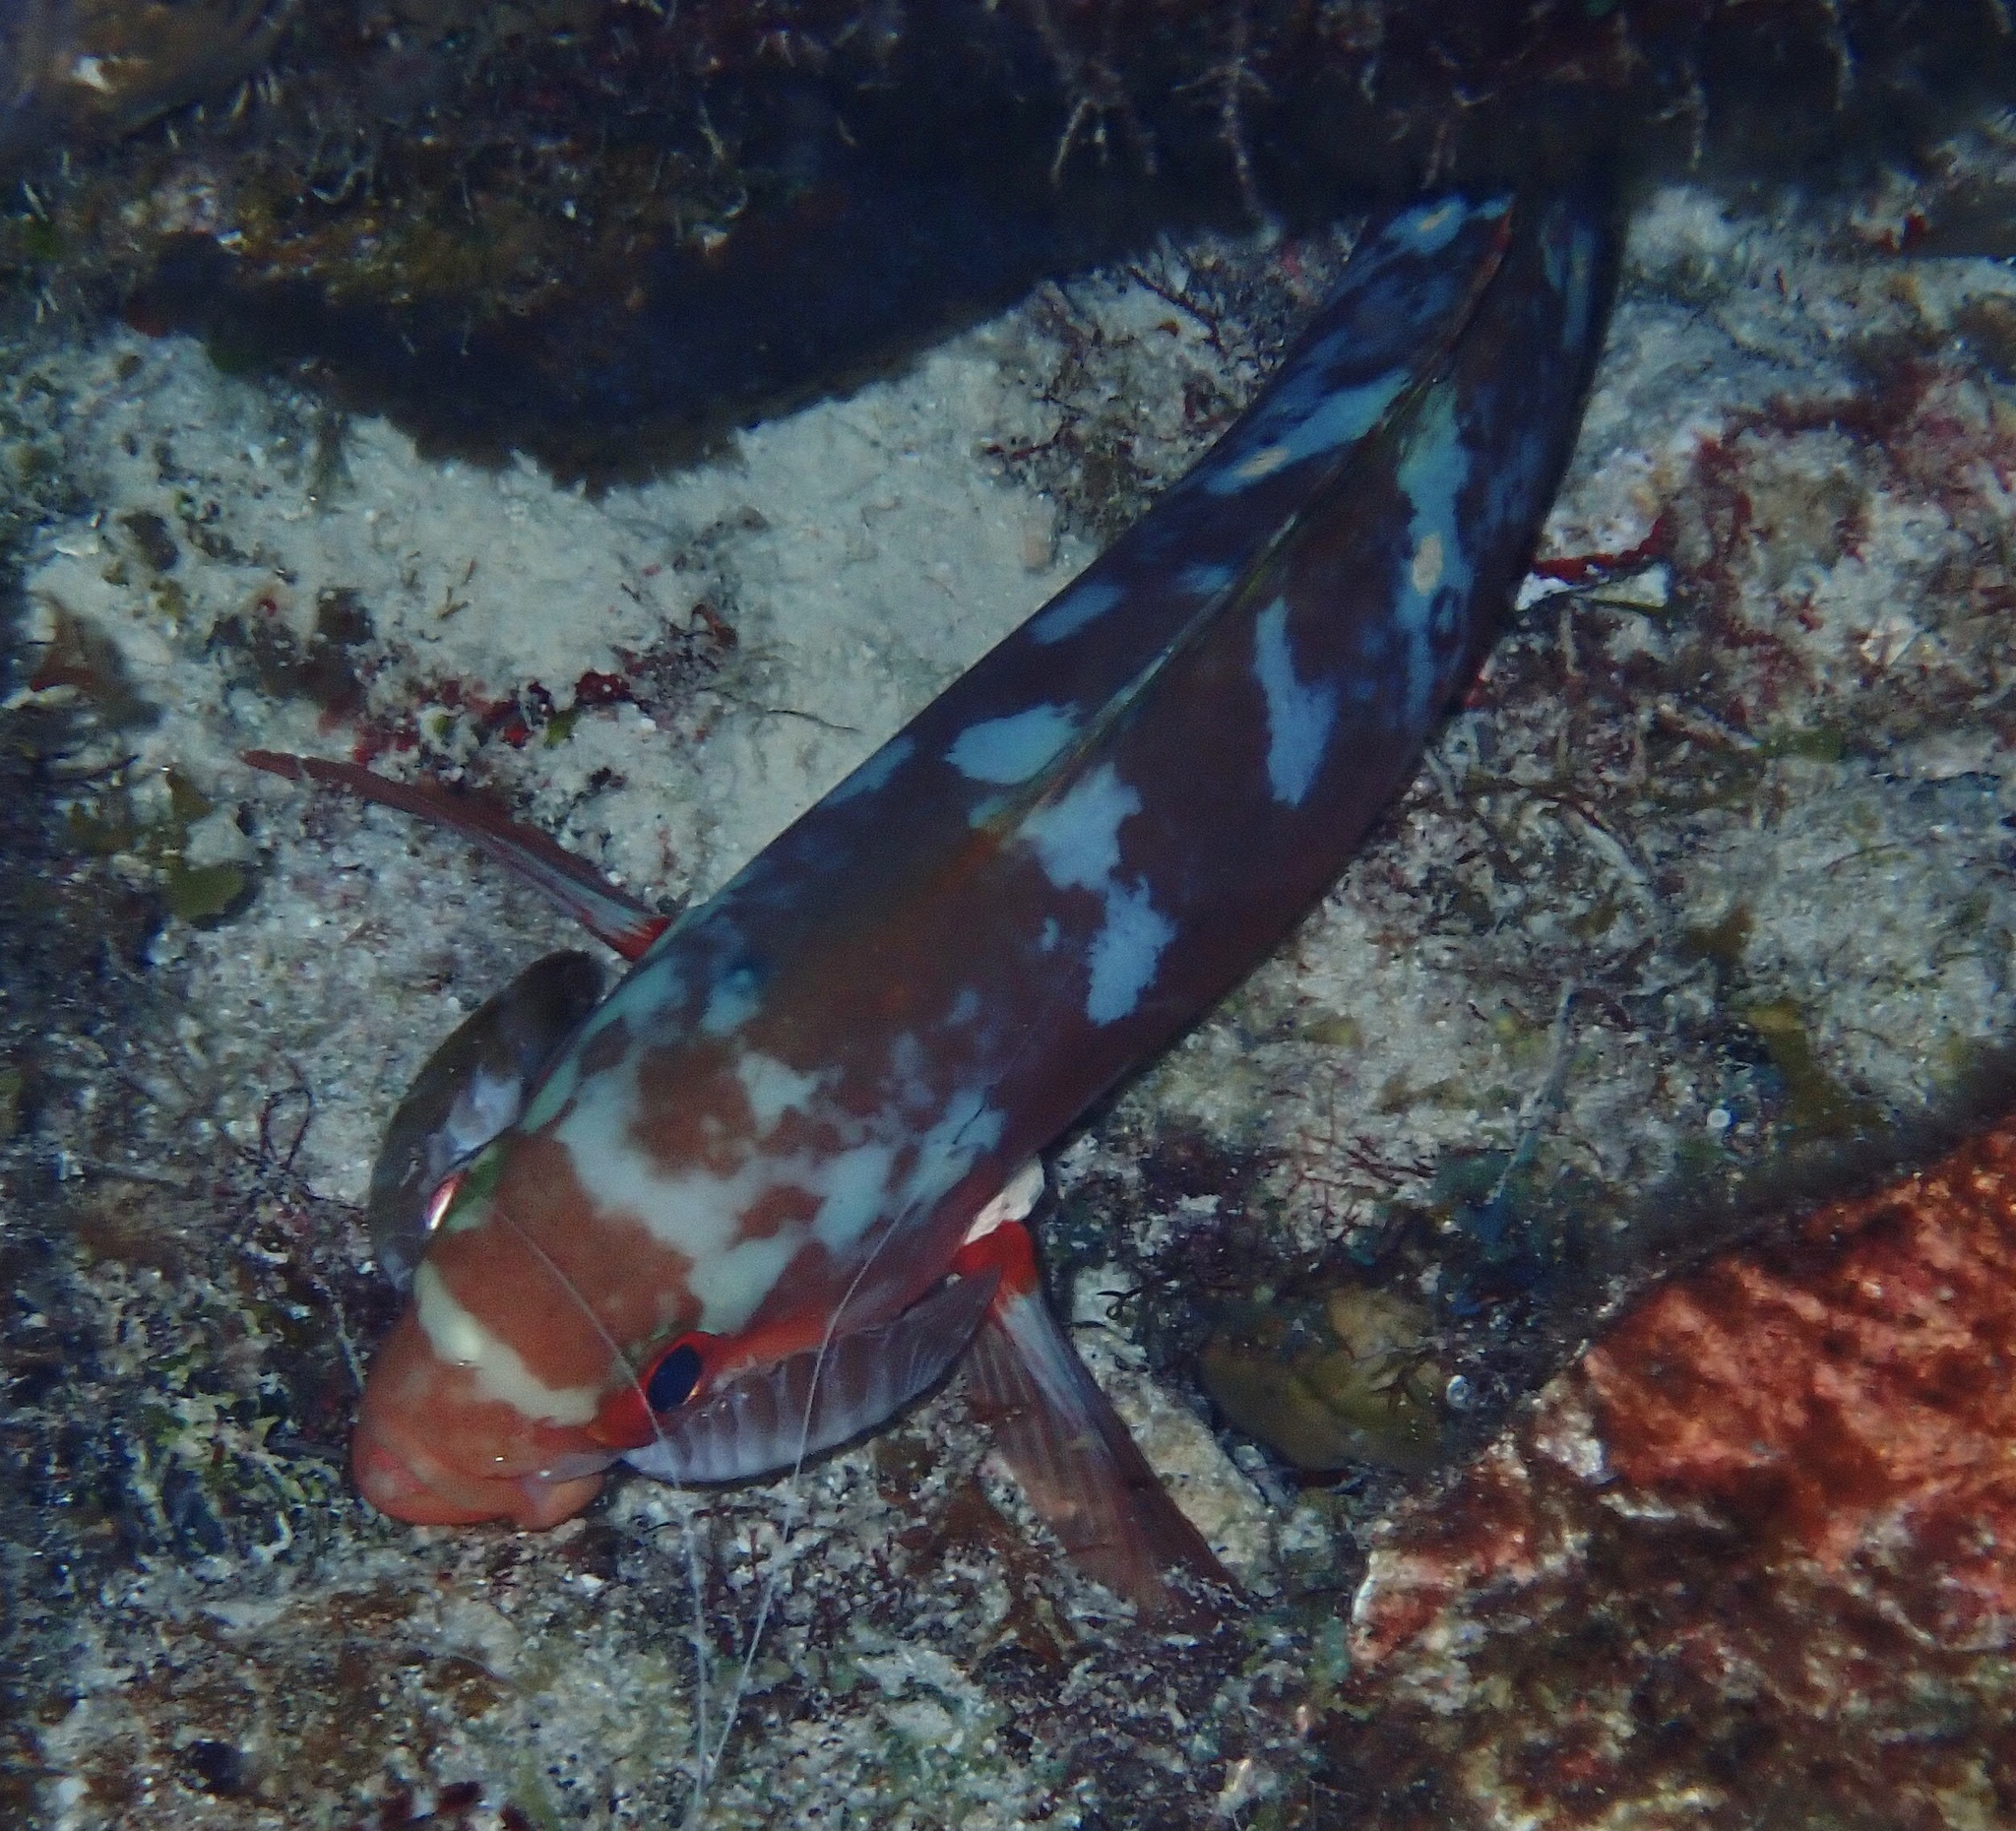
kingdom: Animalia
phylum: Chordata
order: Perciformes
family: Serranidae
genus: Paranthias
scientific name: Paranthias furcifer
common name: Creole-fish
